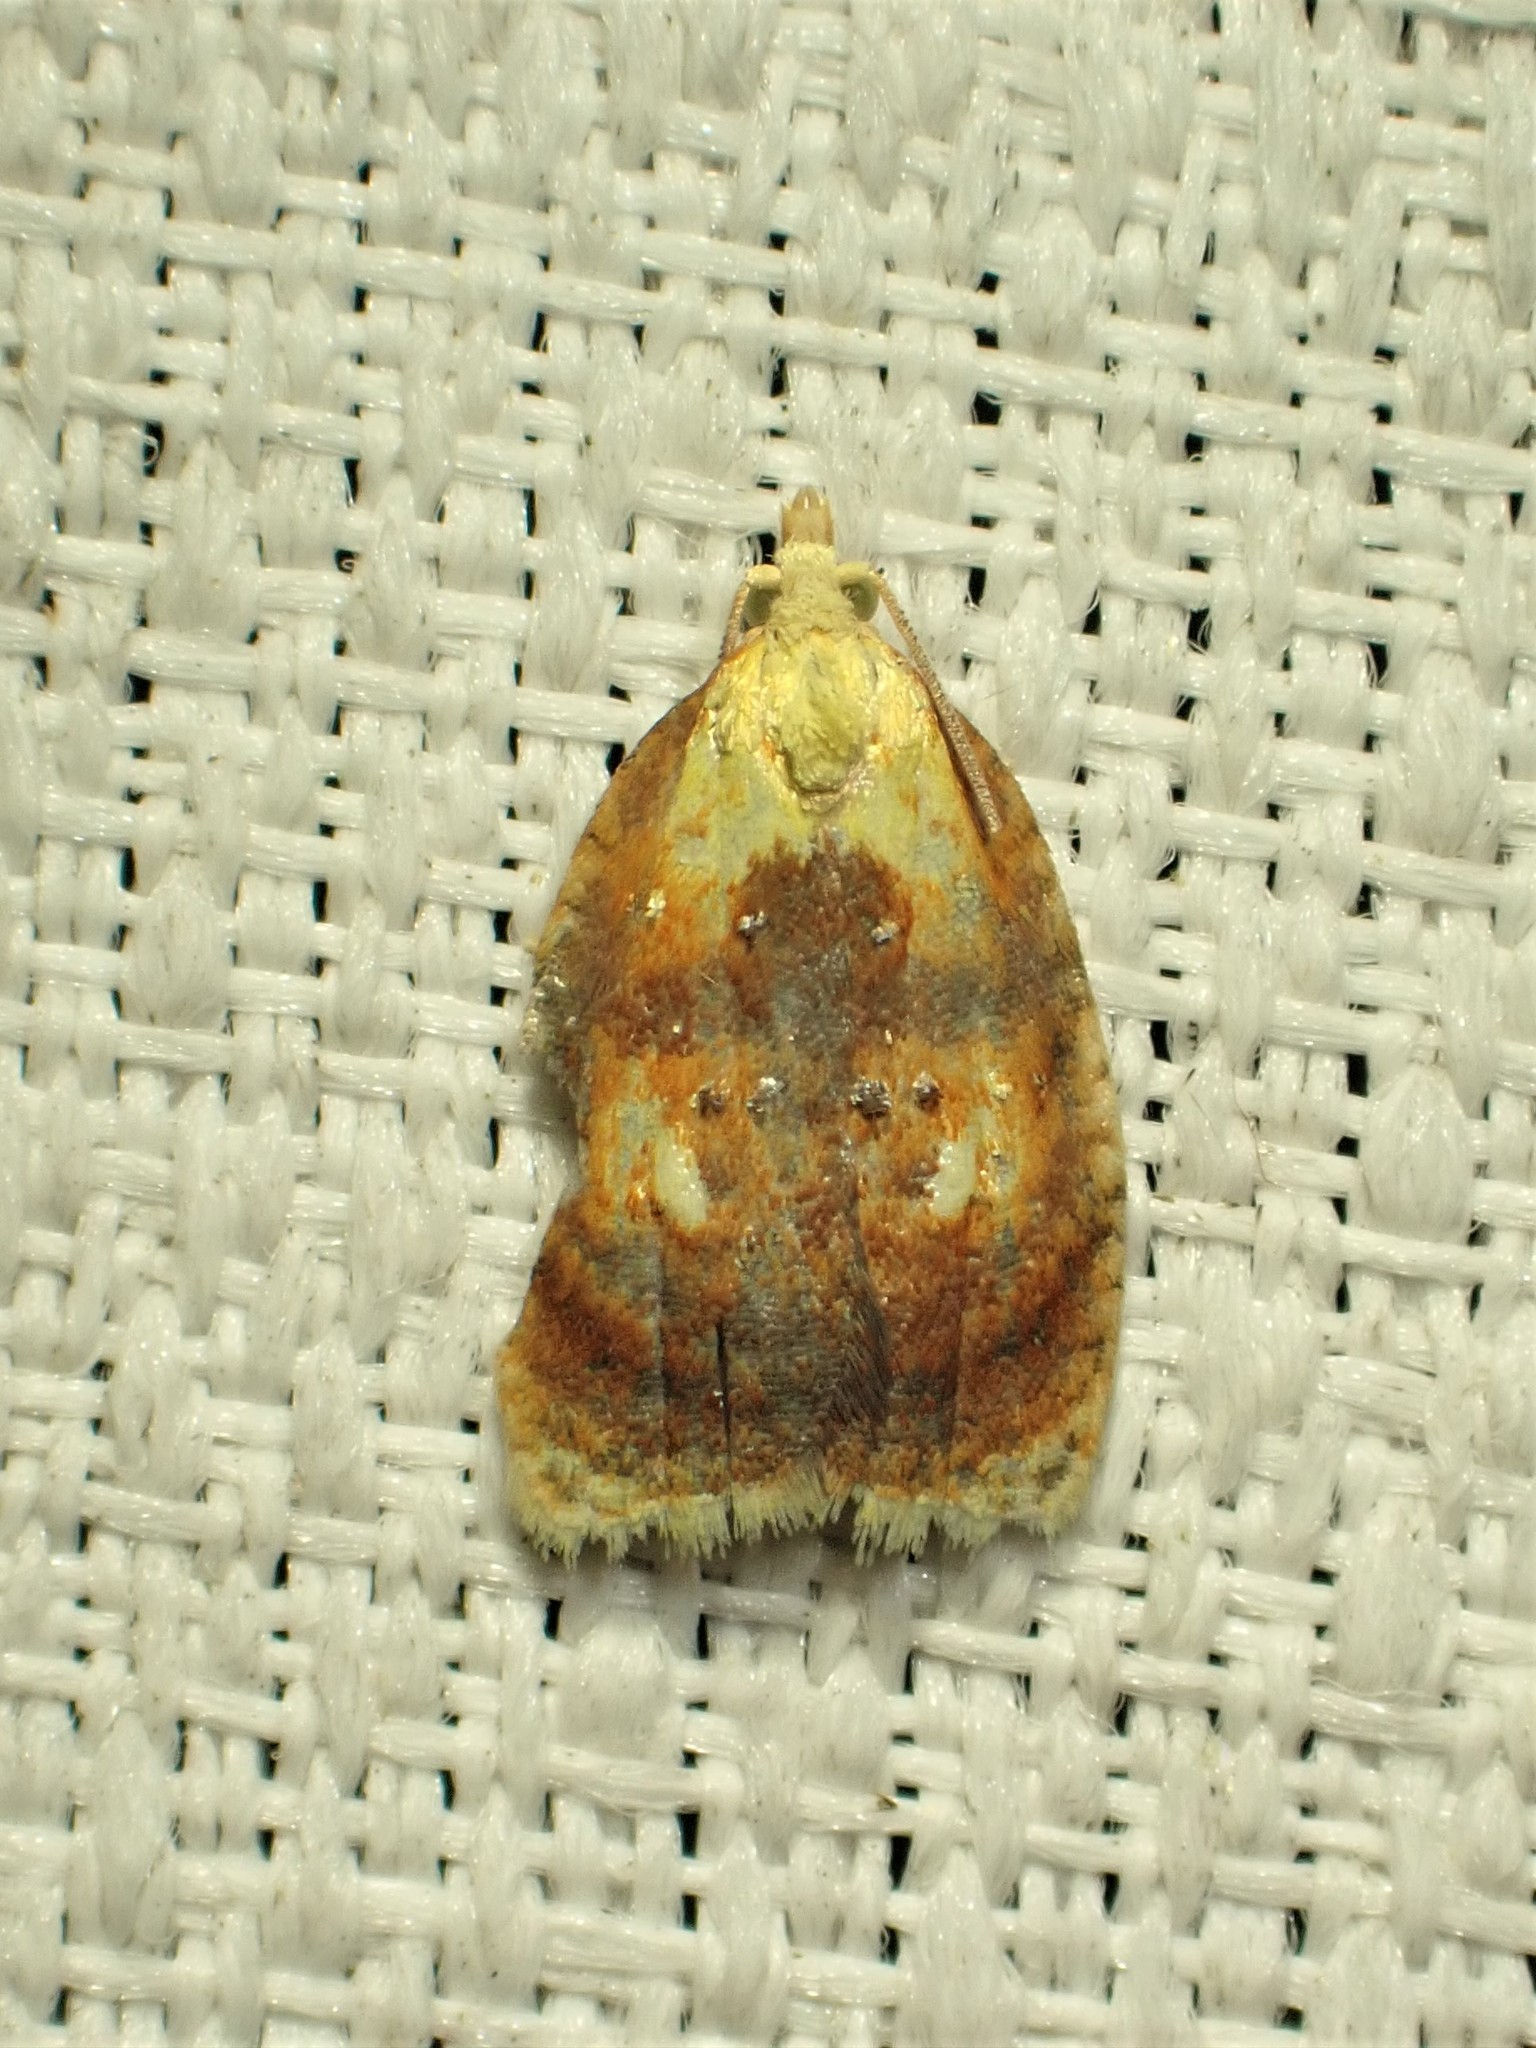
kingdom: Animalia
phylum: Arthropoda
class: Insecta
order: Lepidoptera
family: Tortricidae
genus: Acleris
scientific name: Acleris curvalana
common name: Blueberry leaftier moth
